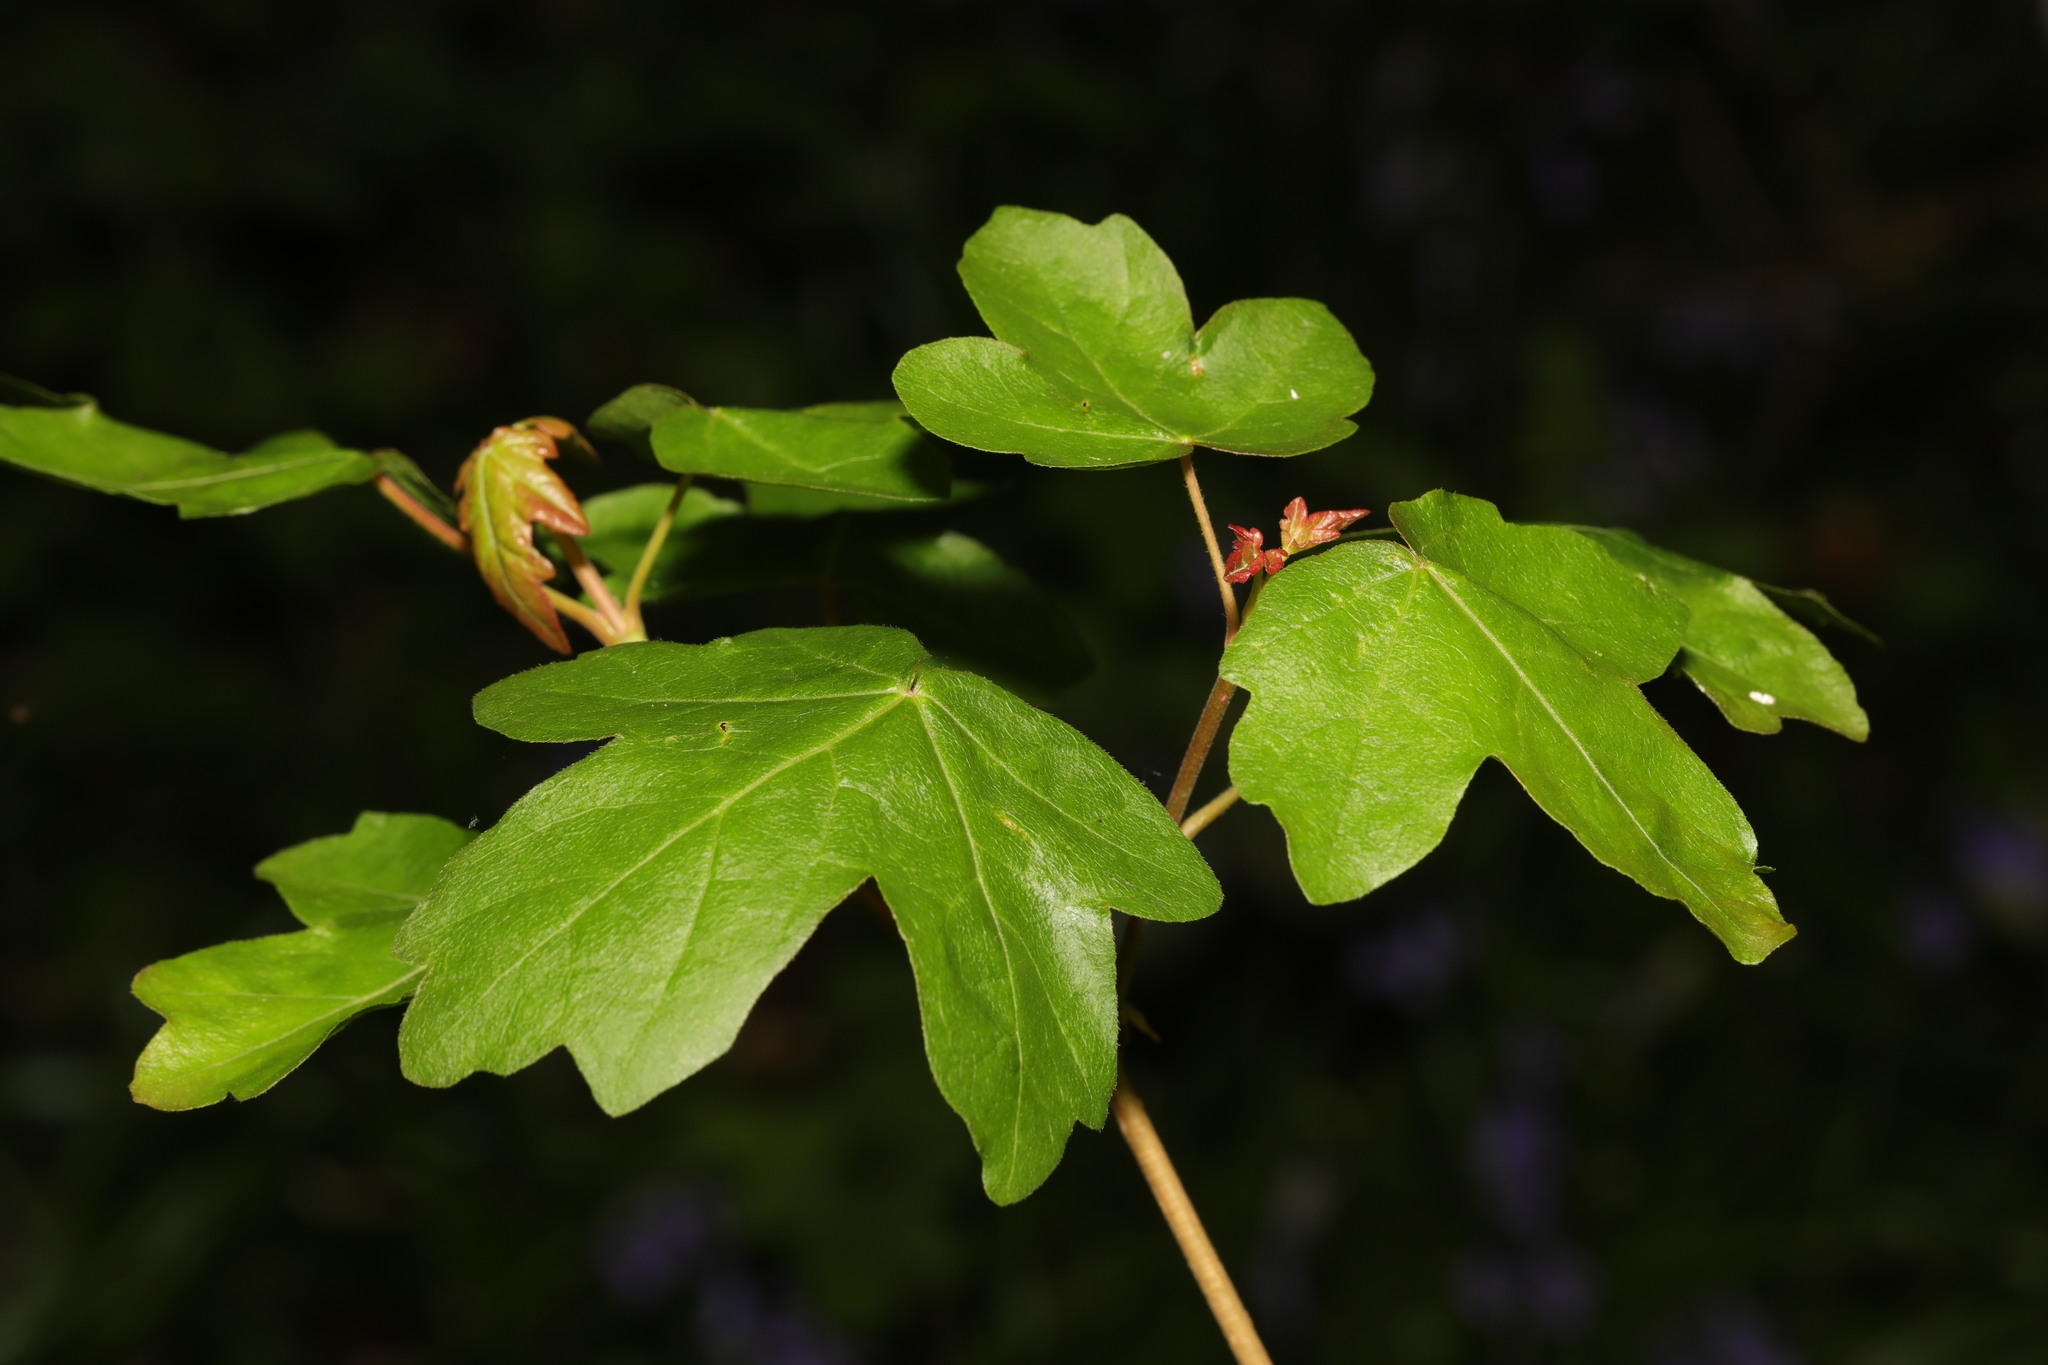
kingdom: Plantae
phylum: Tracheophyta
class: Magnoliopsida
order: Sapindales
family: Sapindaceae
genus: Acer
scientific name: Acer campestre
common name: Field maple
